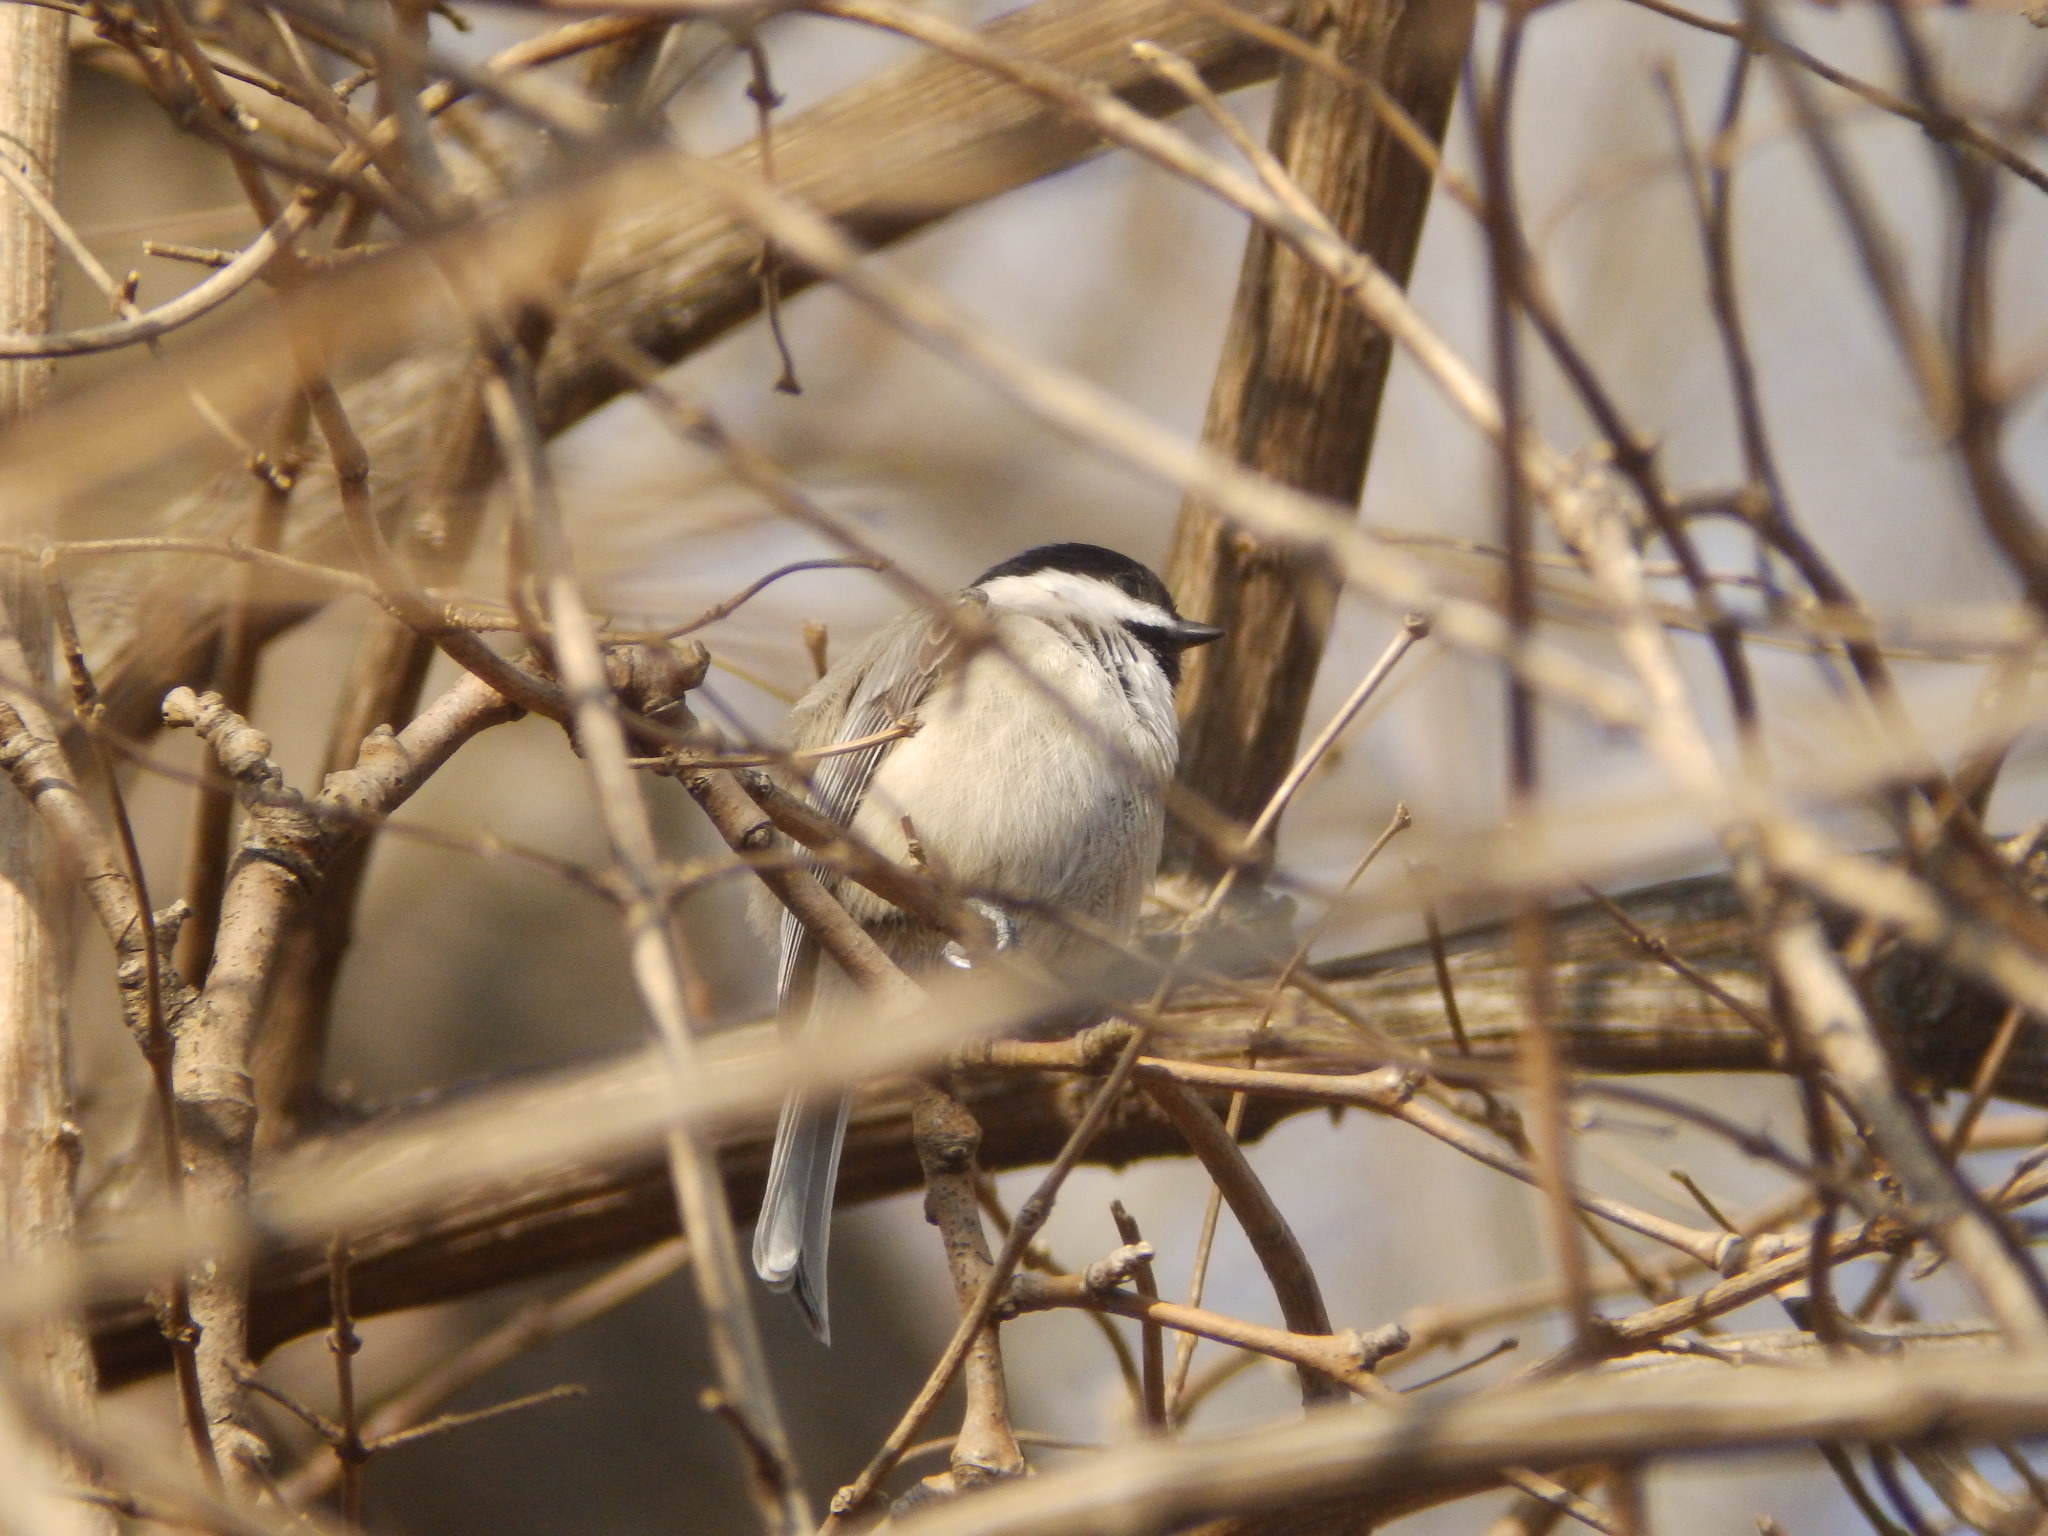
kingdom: Animalia
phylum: Chordata
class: Aves
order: Passeriformes
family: Paridae
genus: Poecile
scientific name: Poecile carolinensis
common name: Carolina chickadee
